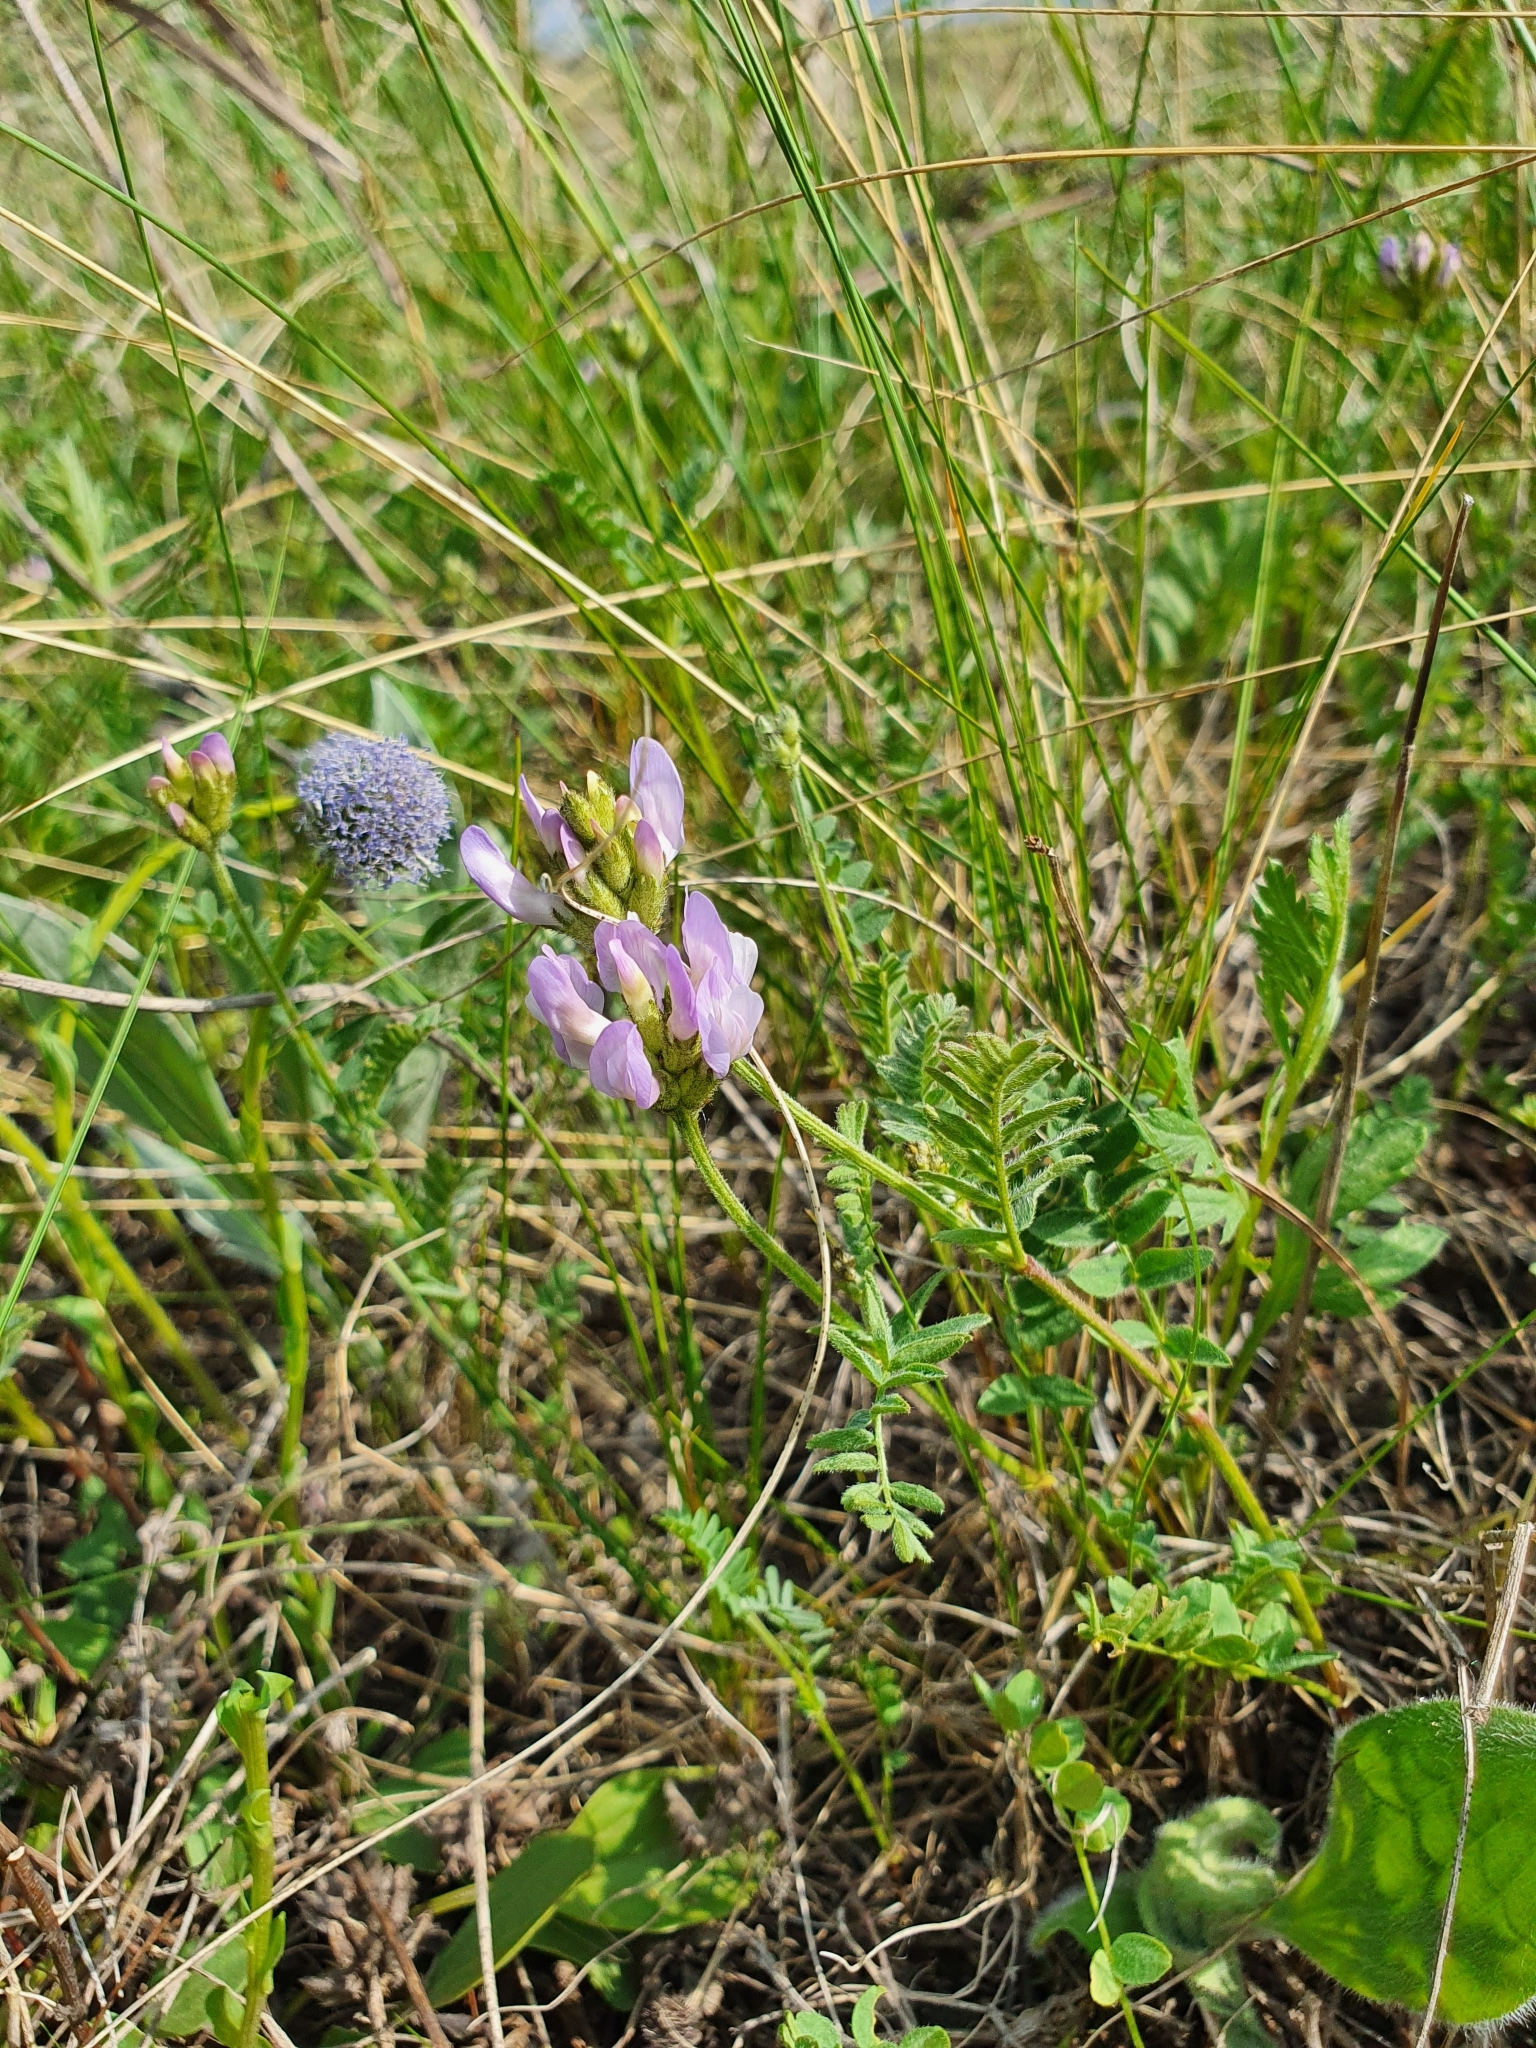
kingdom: Plantae
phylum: Tracheophyta
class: Magnoliopsida
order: Fabales
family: Fabaceae
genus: Astragalus
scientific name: Astragalus danicus
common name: Purple milk-vetch
